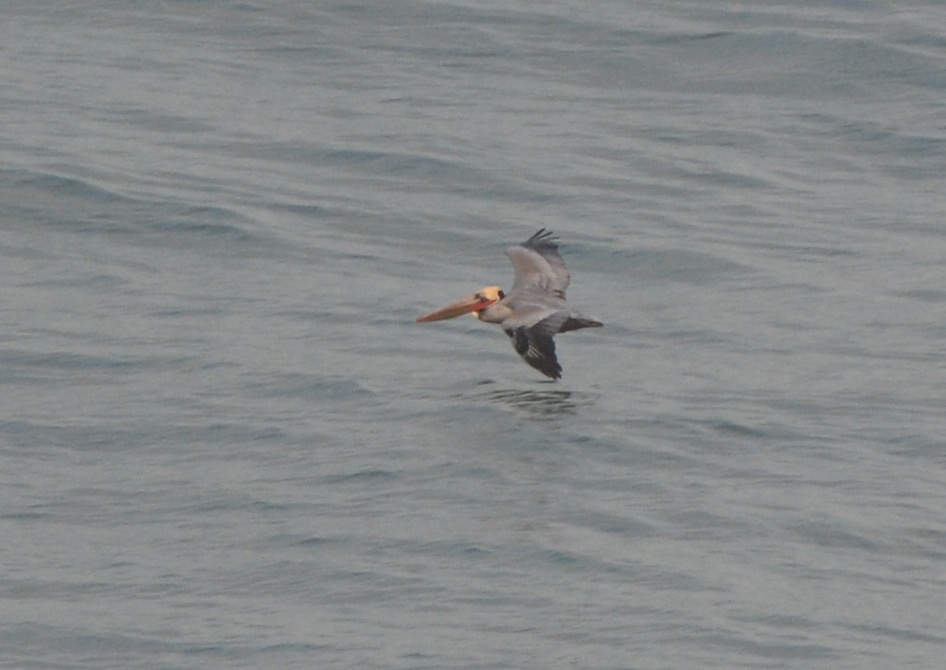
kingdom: Animalia
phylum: Chordata
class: Aves
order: Pelecaniformes
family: Pelecanidae
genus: Pelecanus
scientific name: Pelecanus occidentalis
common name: Brown pelican
